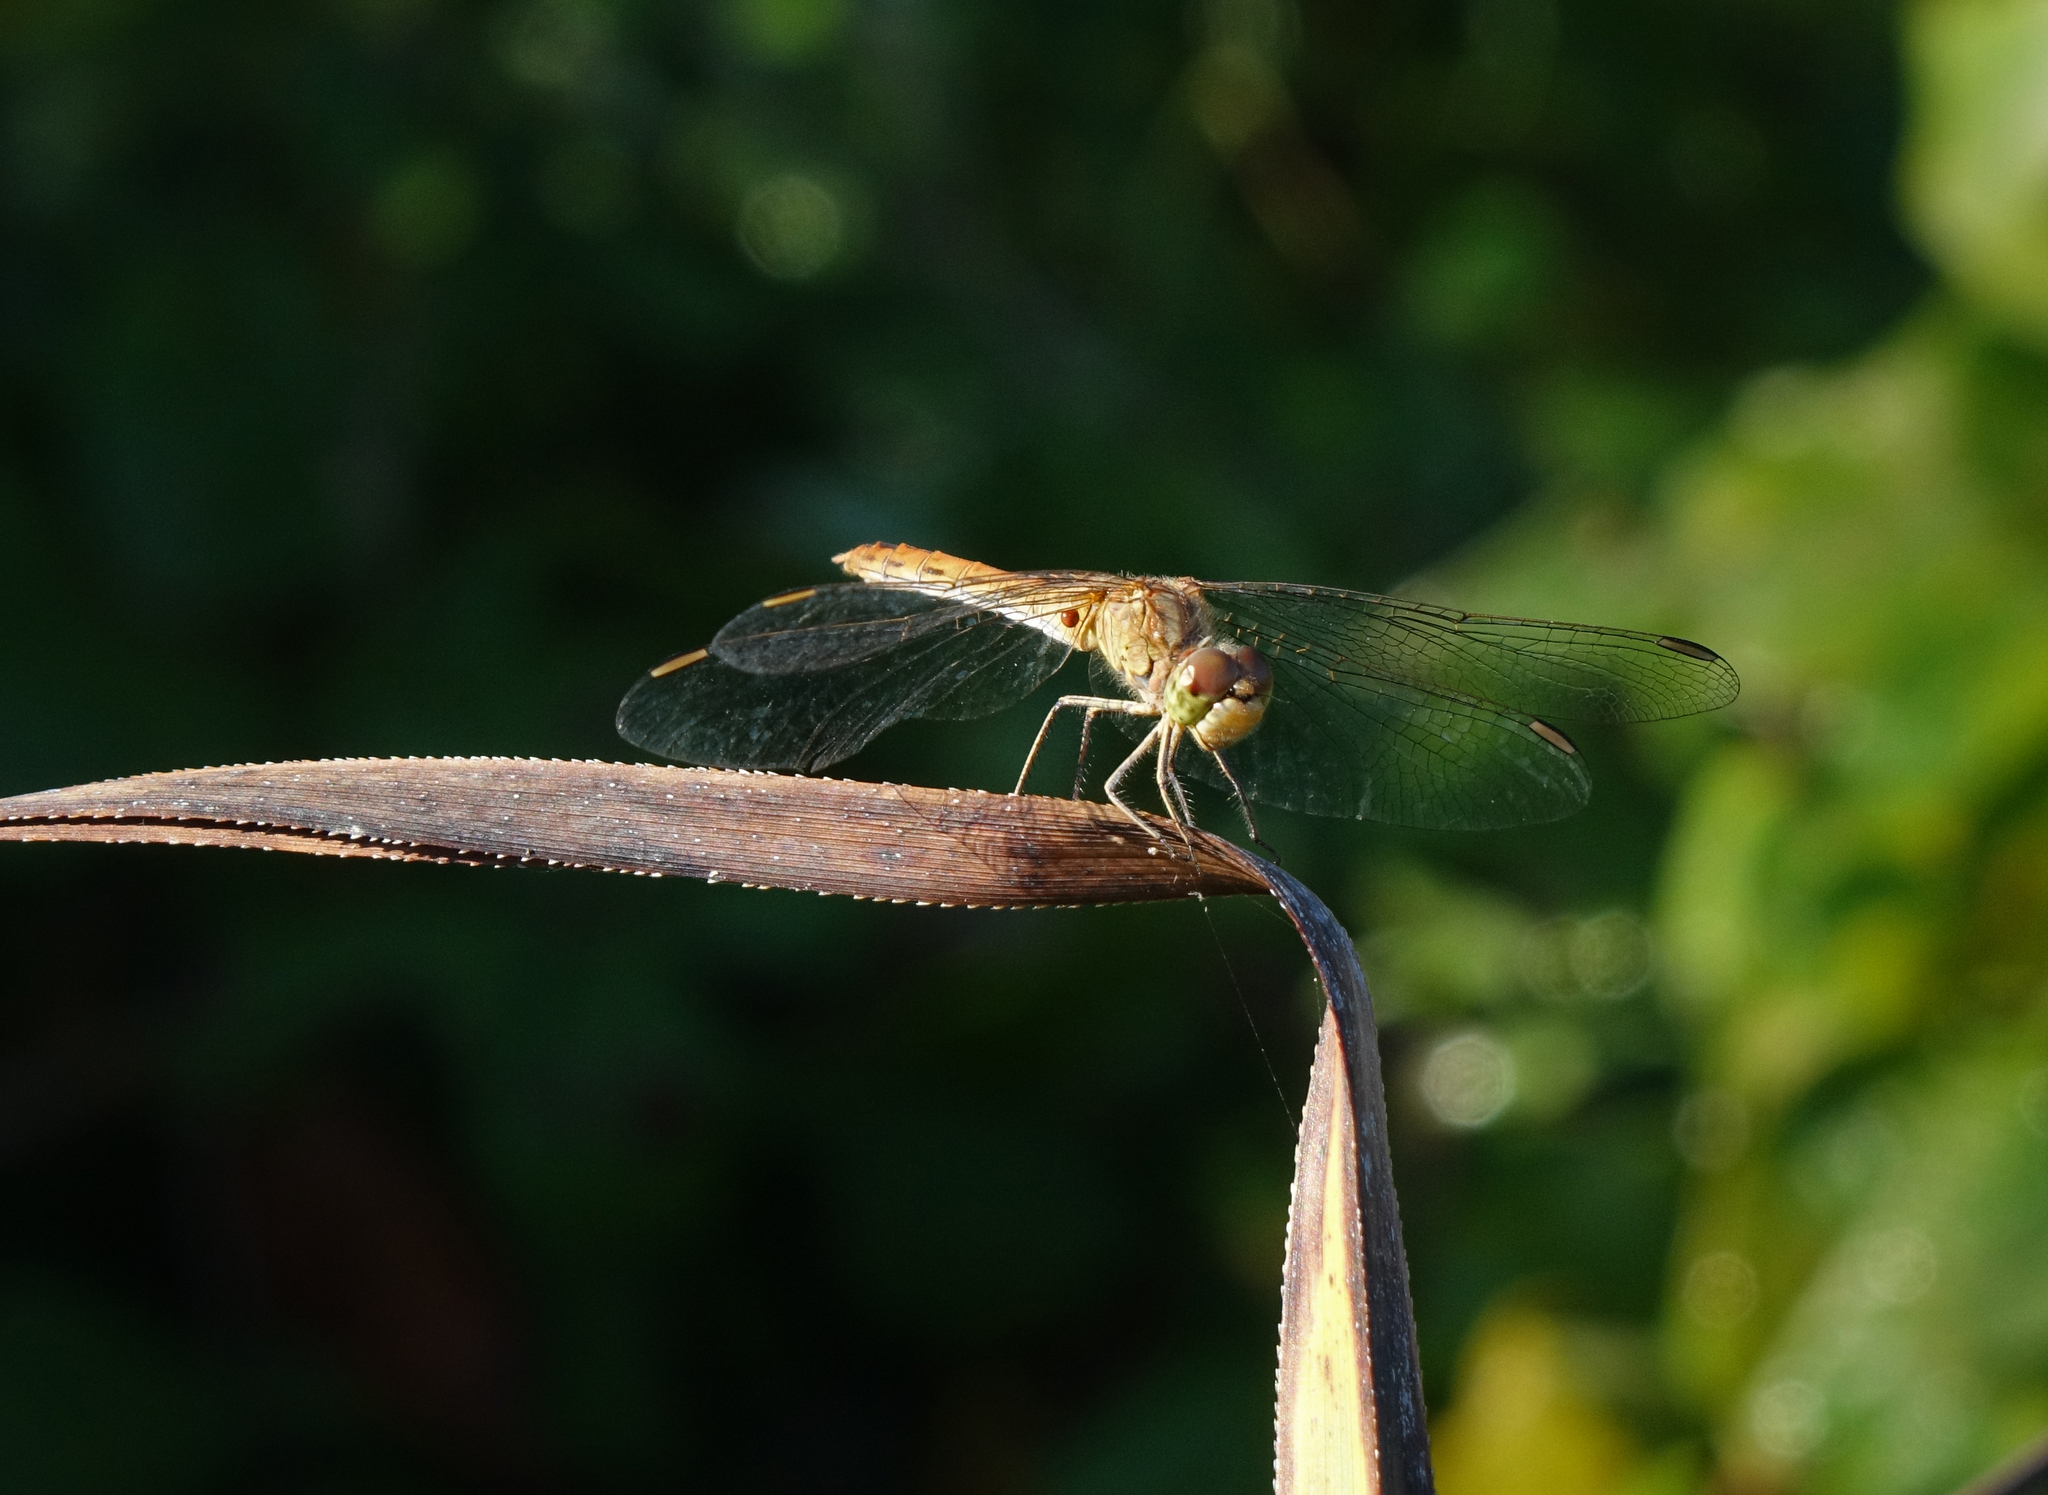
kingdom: Animalia
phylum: Arthropoda
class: Insecta
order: Odonata
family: Libellulidae
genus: Sympetrum
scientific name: Sympetrum meridionale
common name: Southern darter
